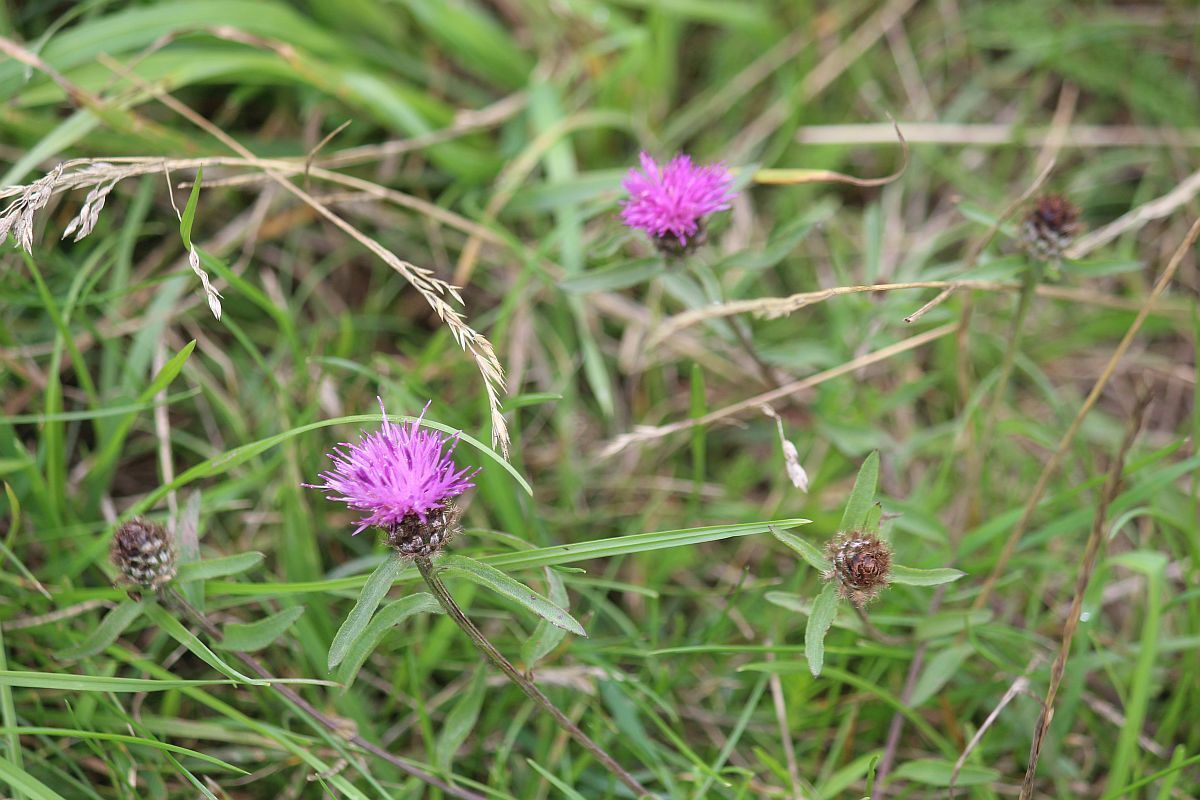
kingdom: Plantae
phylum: Tracheophyta
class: Magnoliopsida
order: Asterales
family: Asteraceae
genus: Centaurea
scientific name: Centaurea nigra
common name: Lesser knapweed
